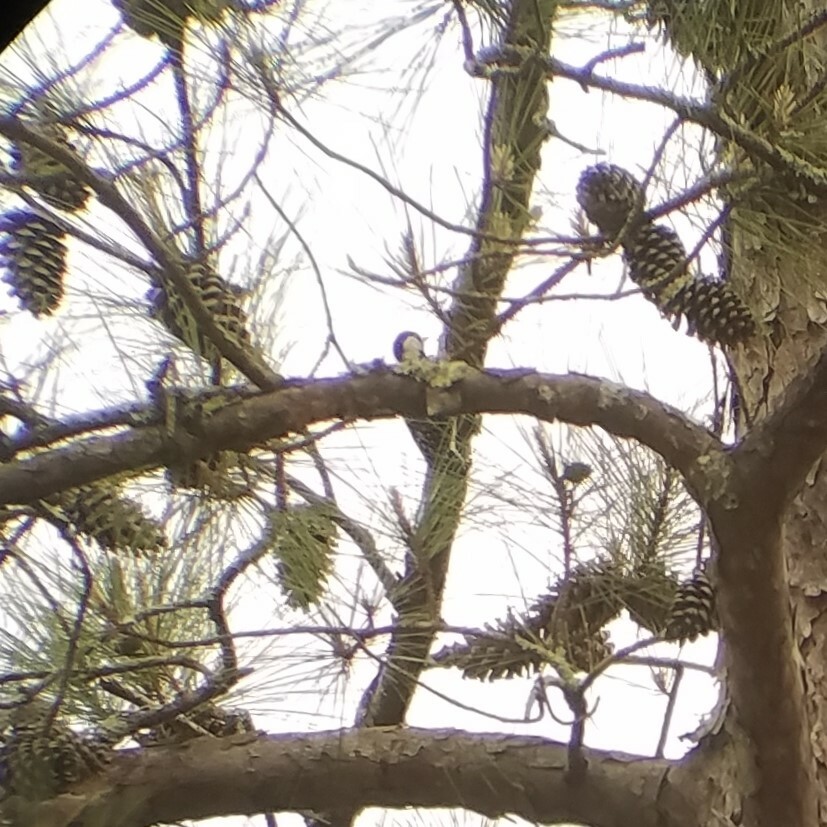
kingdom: Animalia
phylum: Chordata
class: Aves
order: Piciformes
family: Picidae
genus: Leuconotopicus
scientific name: Leuconotopicus borealis
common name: Red-cockaded woodpecker
